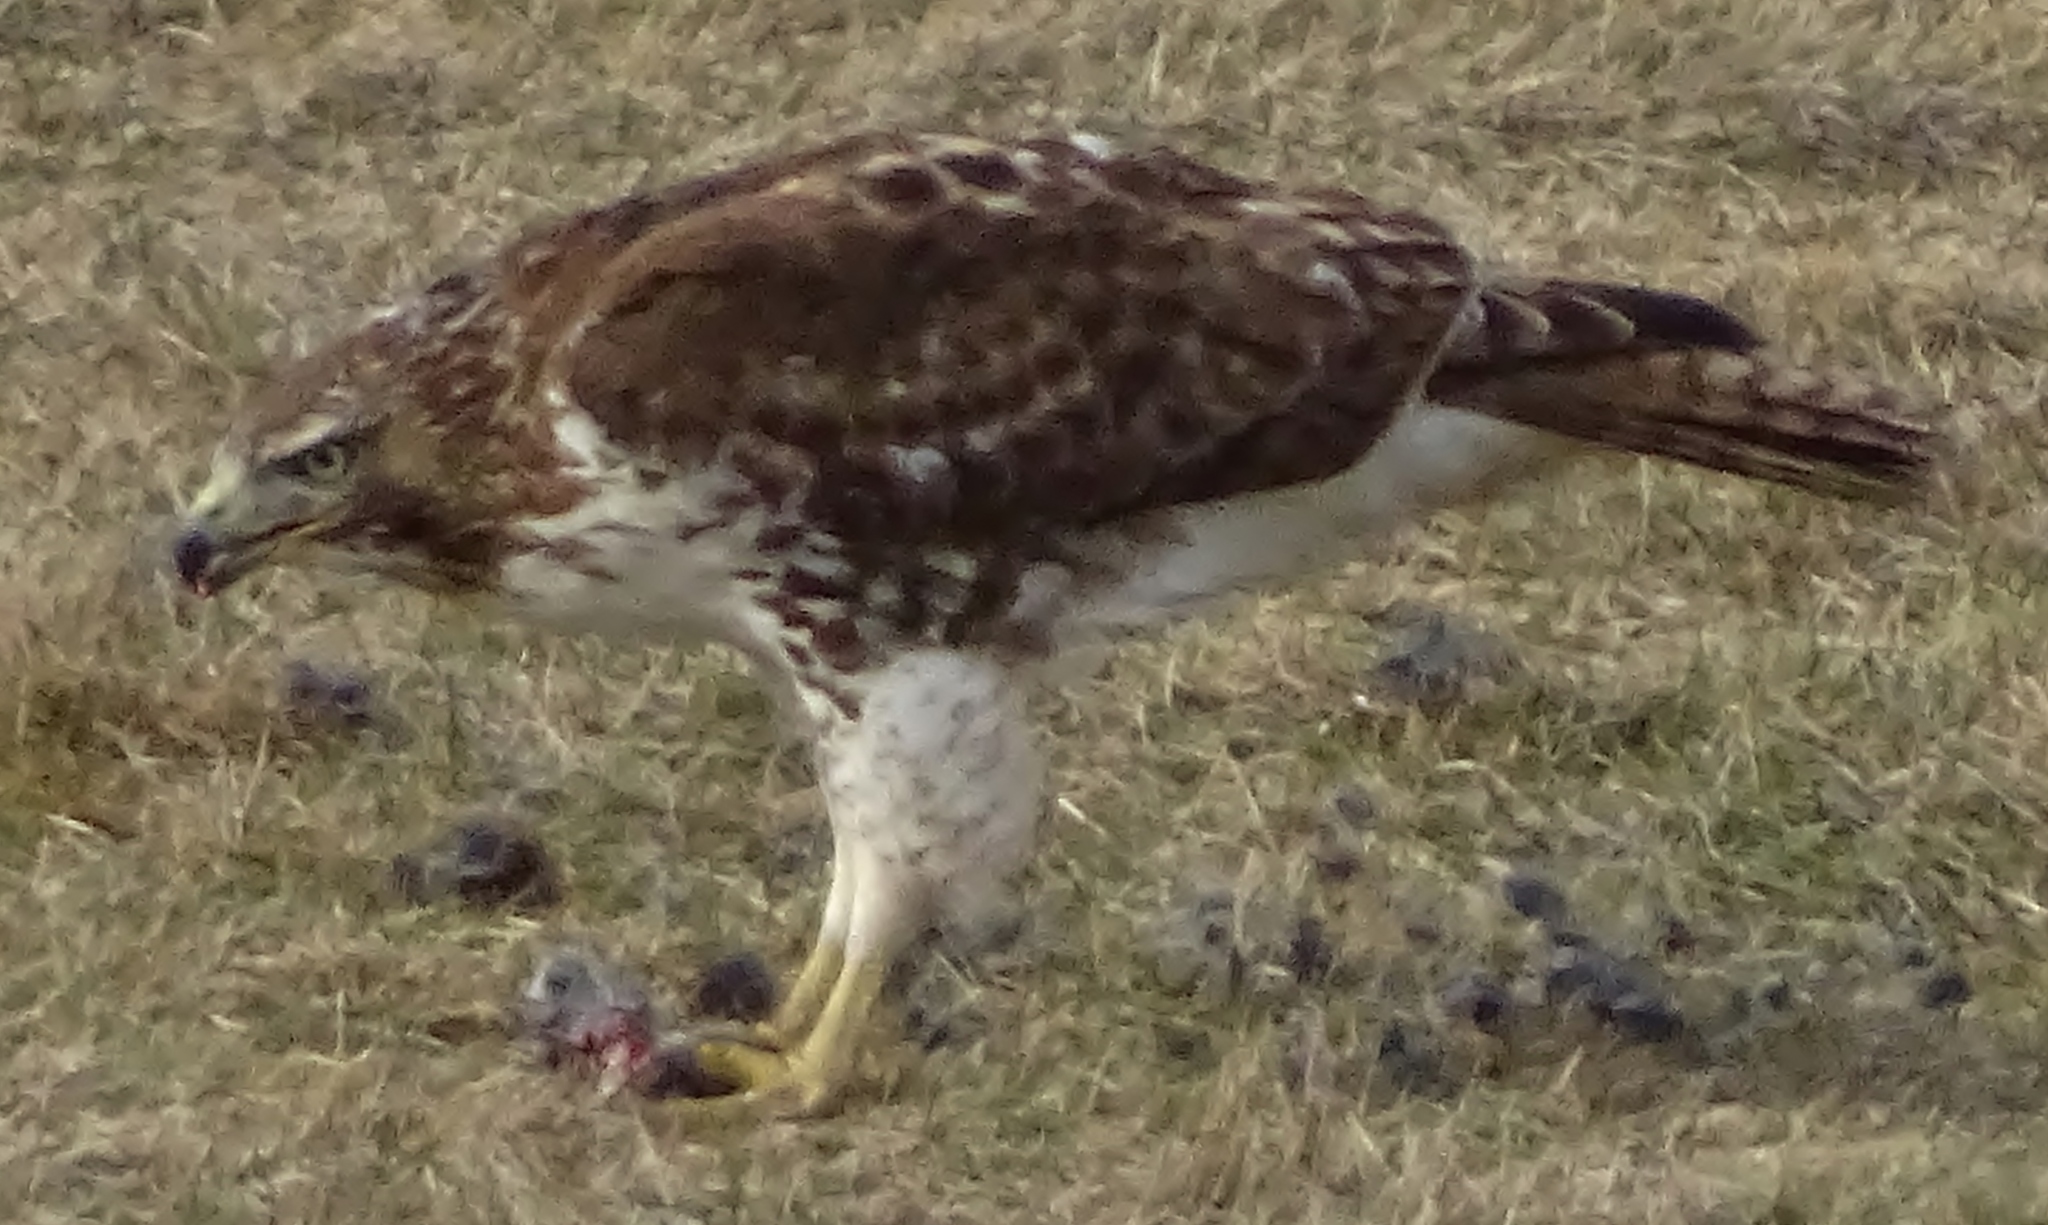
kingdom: Animalia
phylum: Chordata
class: Aves
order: Accipitriformes
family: Accipitridae
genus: Buteo
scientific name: Buteo jamaicensis
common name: Red-tailed hawk
